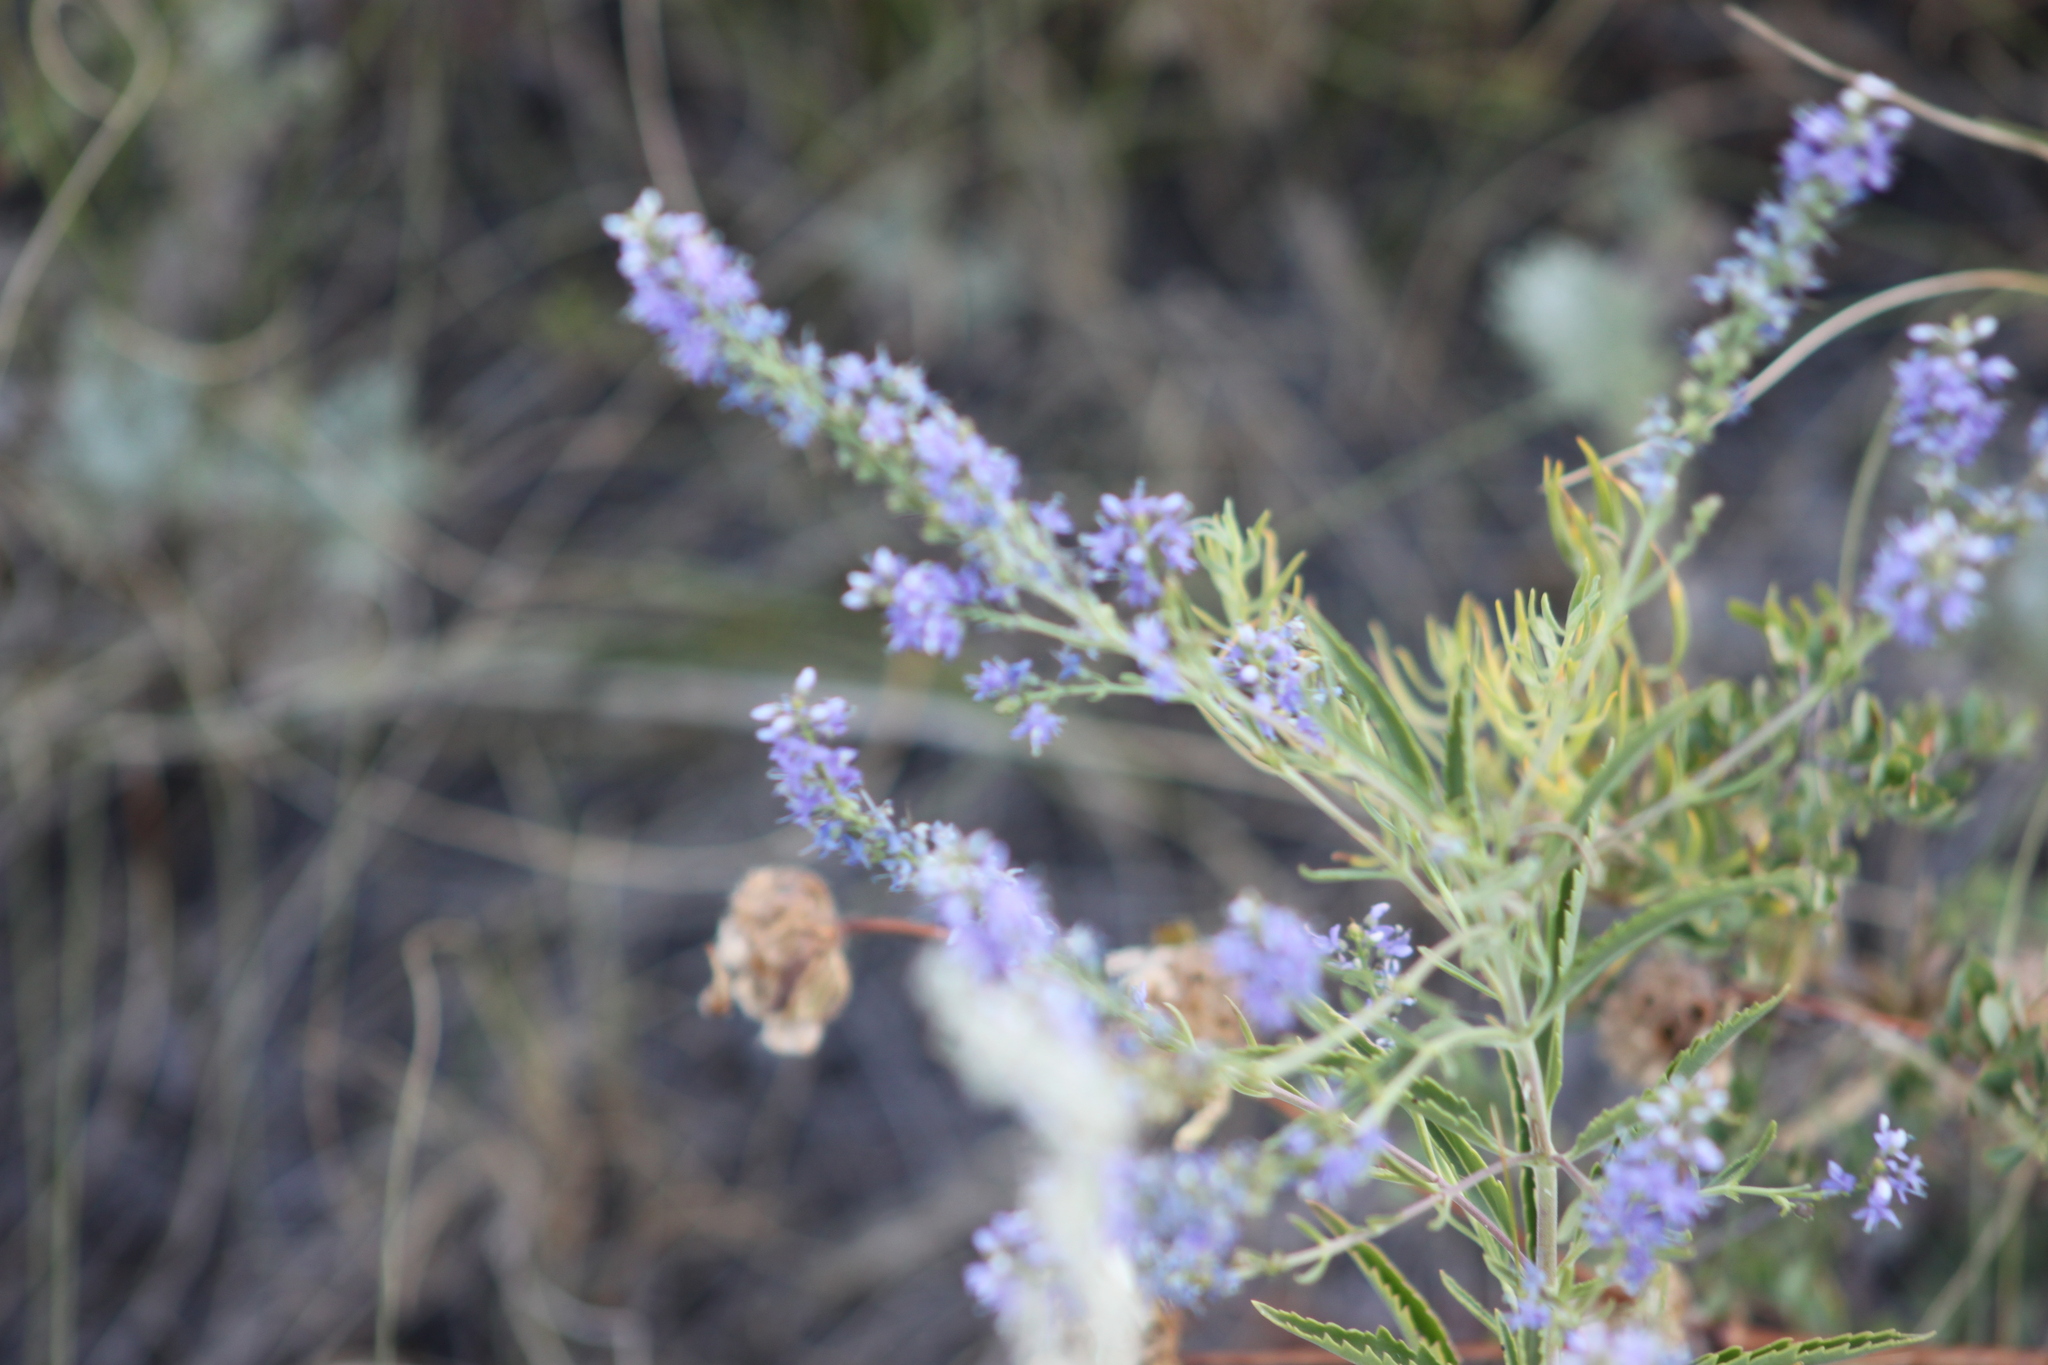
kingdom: Plantae
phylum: Tracheophyta
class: Magnoliopsida
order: Lamiales
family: Plantaginaceae
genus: Veronica
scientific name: Veronica spuria
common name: Bastard speedwell
